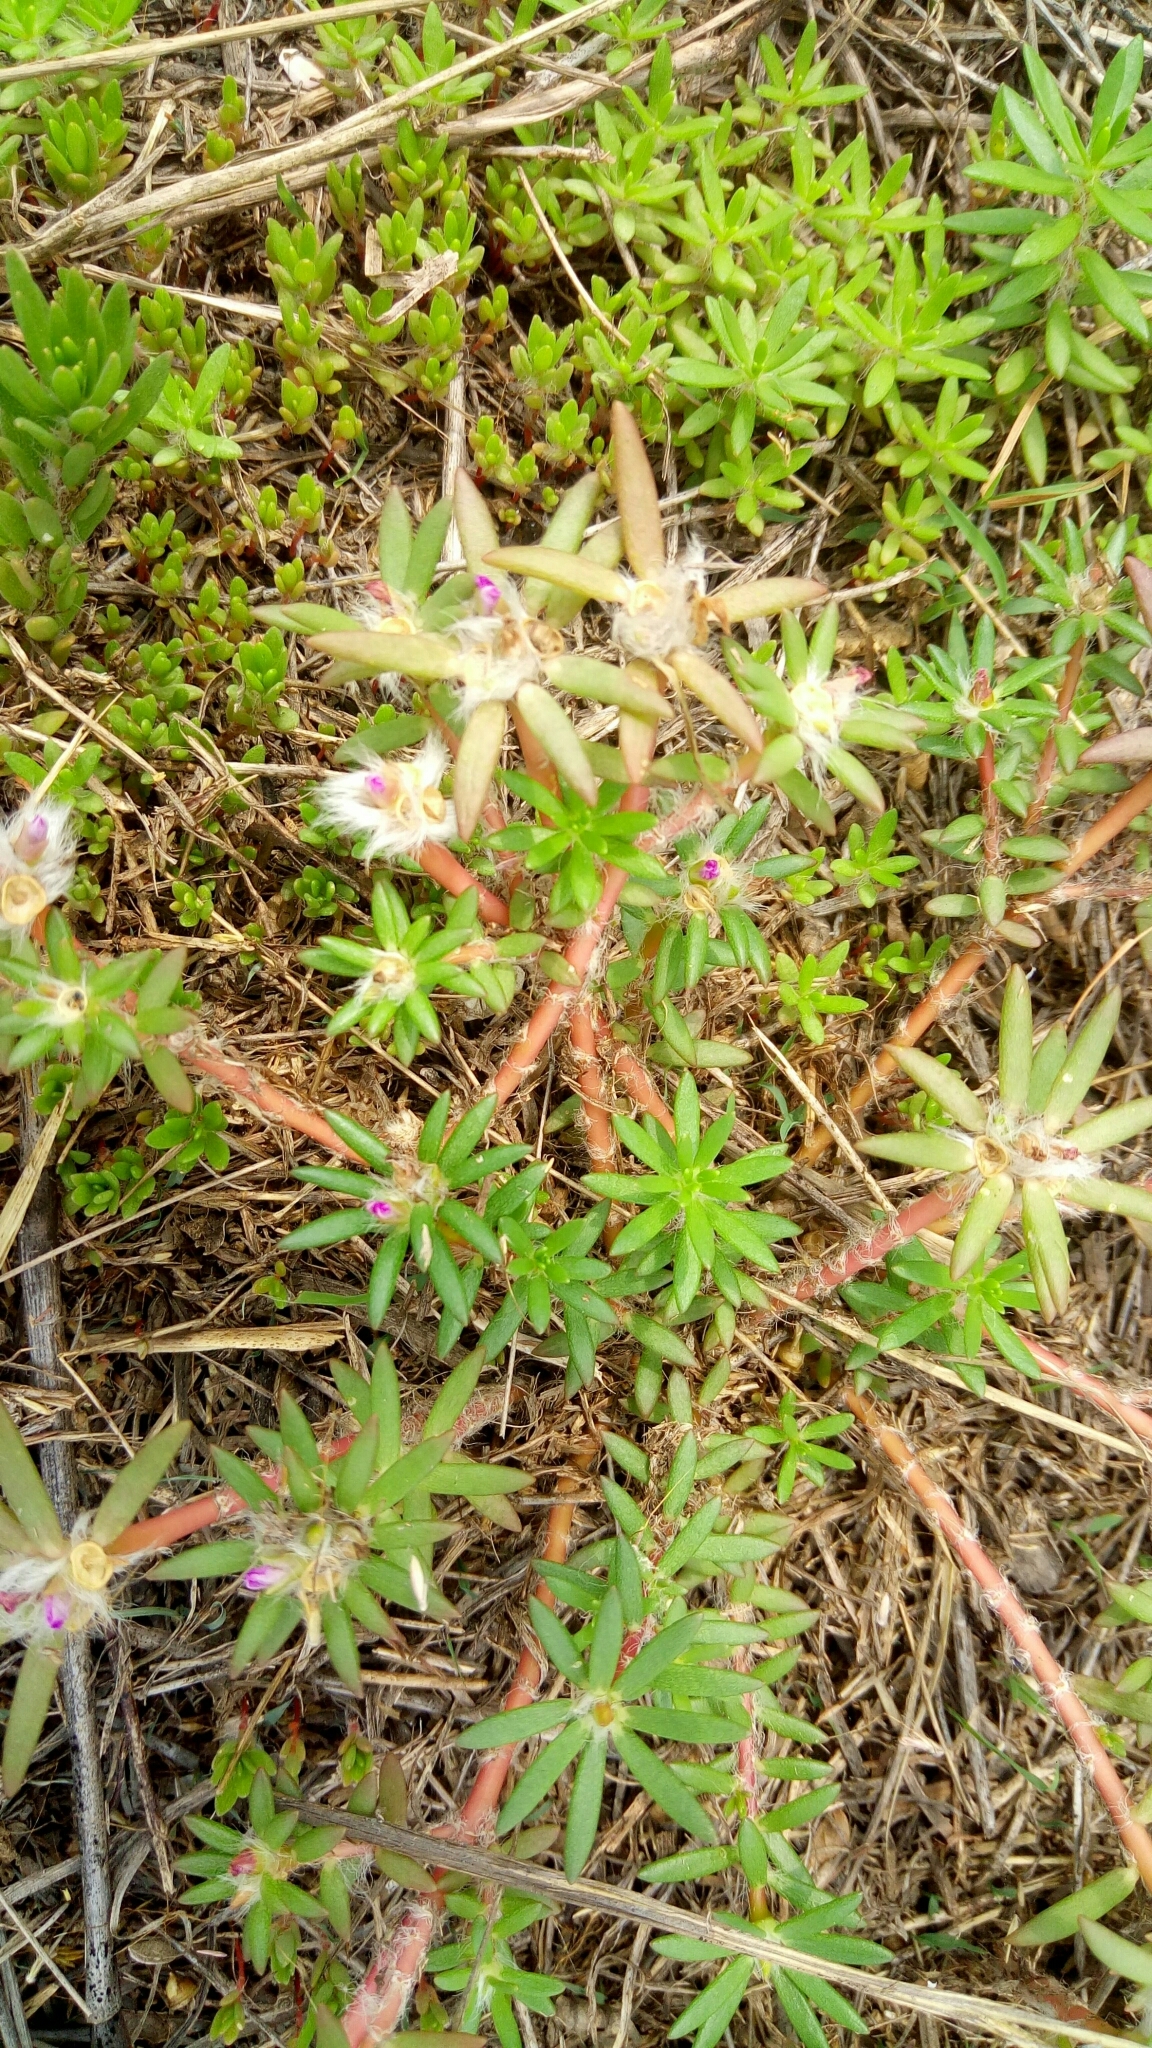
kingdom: Plantae
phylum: Tracheophyta
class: Magnoliopsida
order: Caryophyllales
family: Portulacaceae
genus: Portulaca
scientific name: Portulaca pilosa
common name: Kiss me quick
